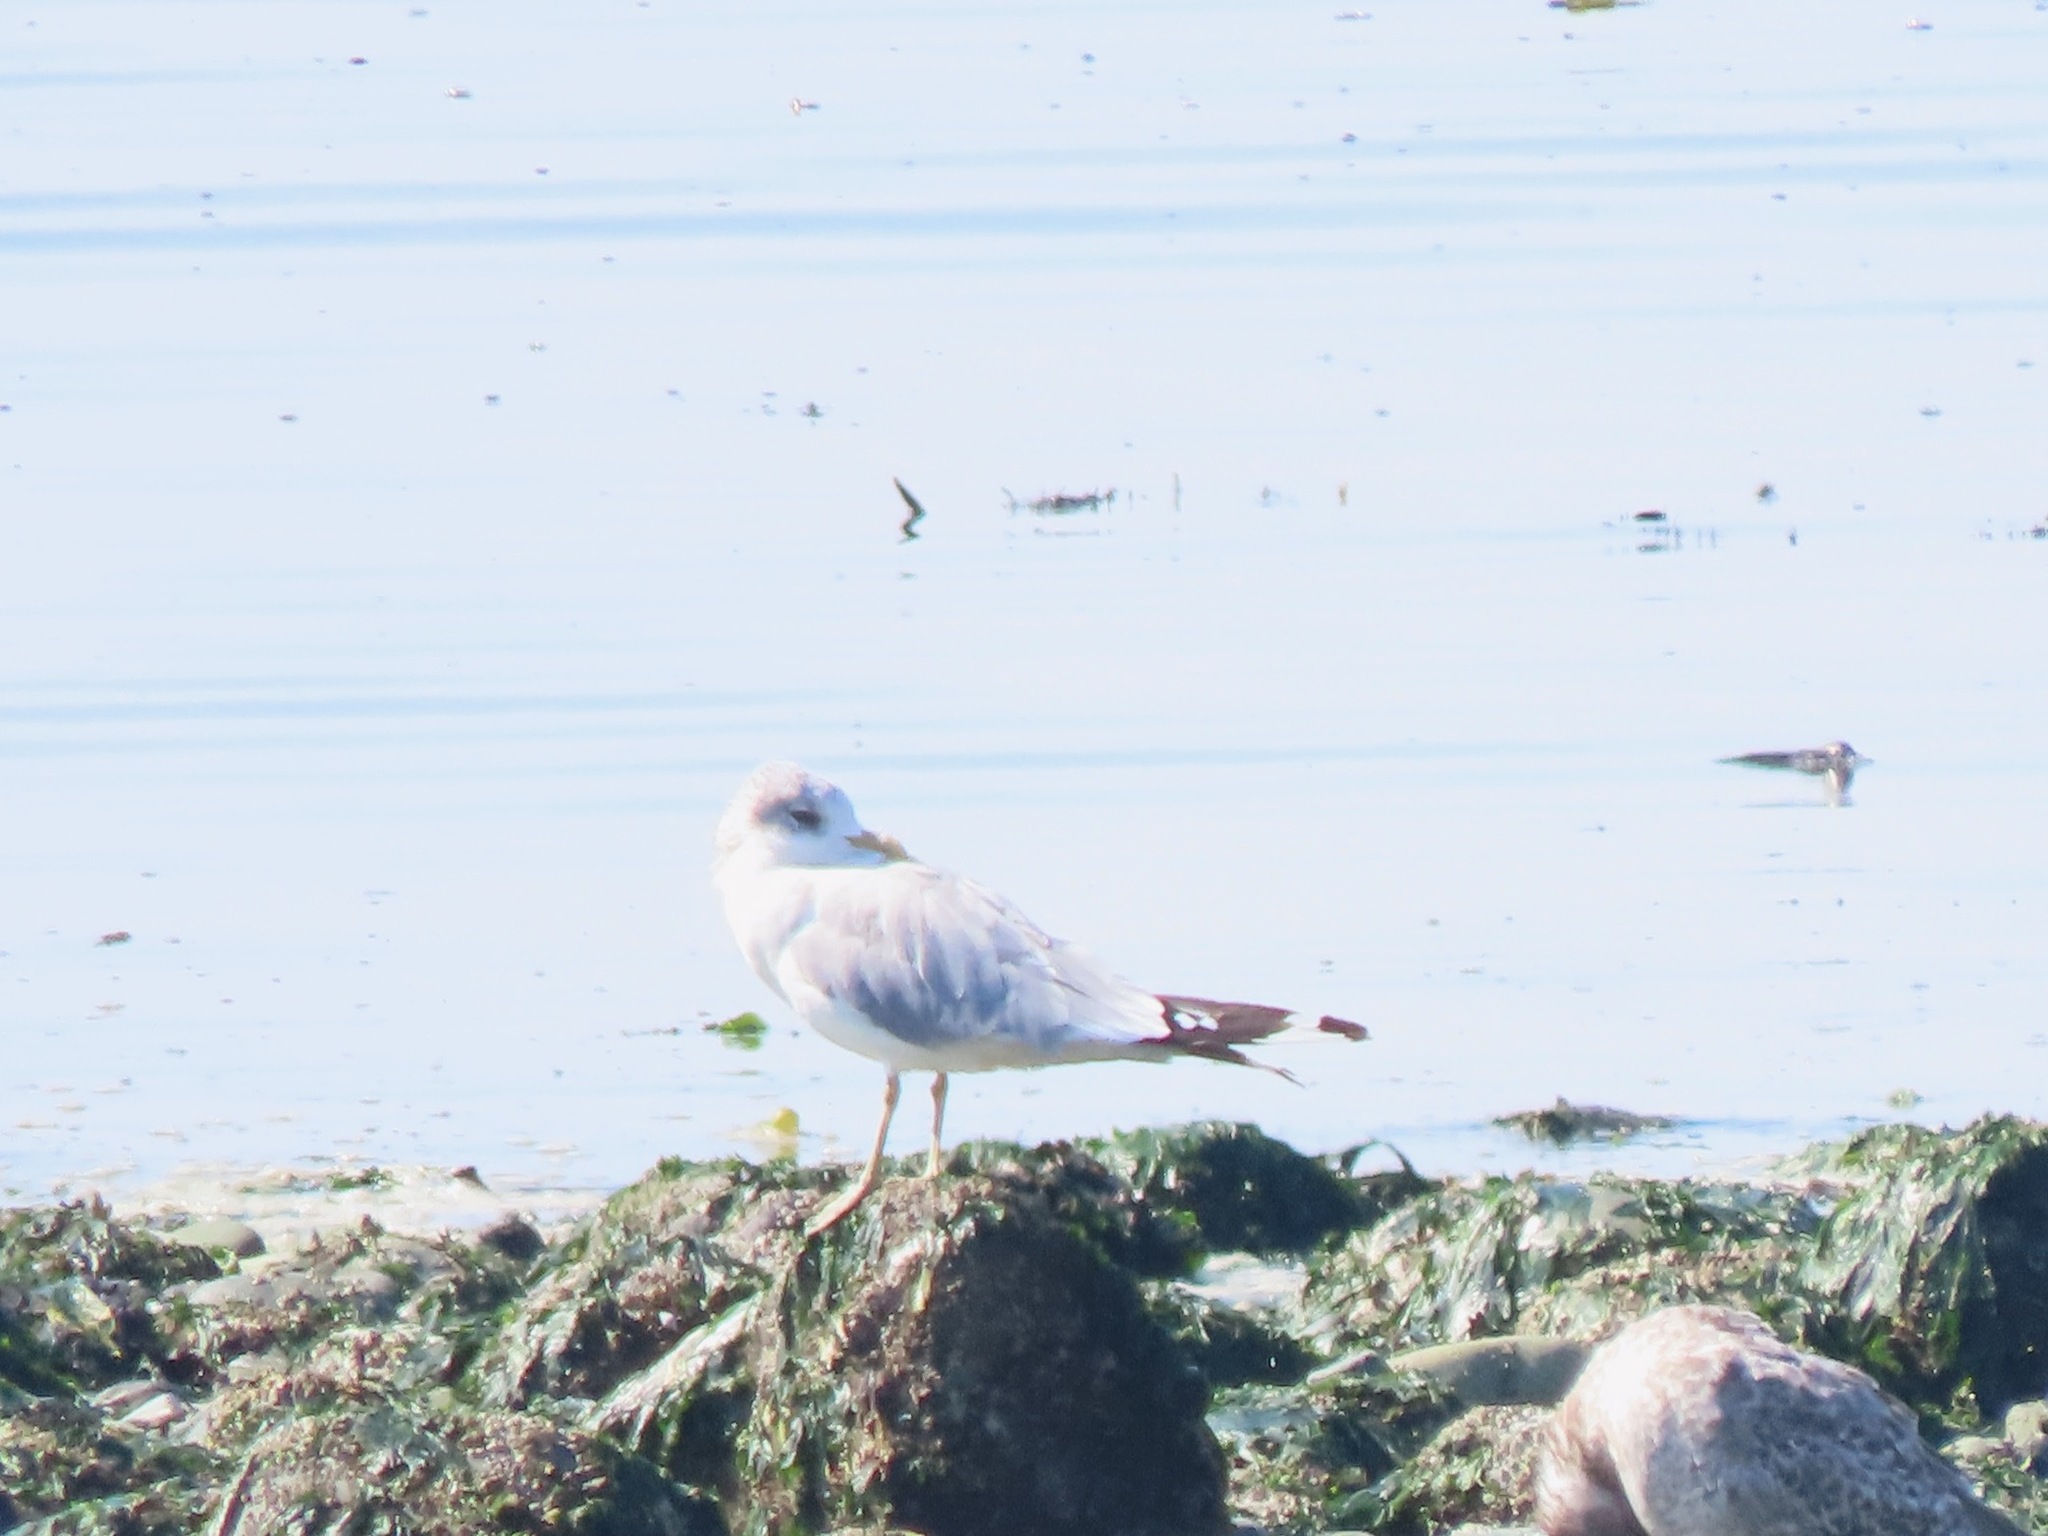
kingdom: Animalia
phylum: Chordata
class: Aves
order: Charadriiformes
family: Laridae
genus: Larus
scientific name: Larus brachyrhynchus
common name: Short-billed gull
